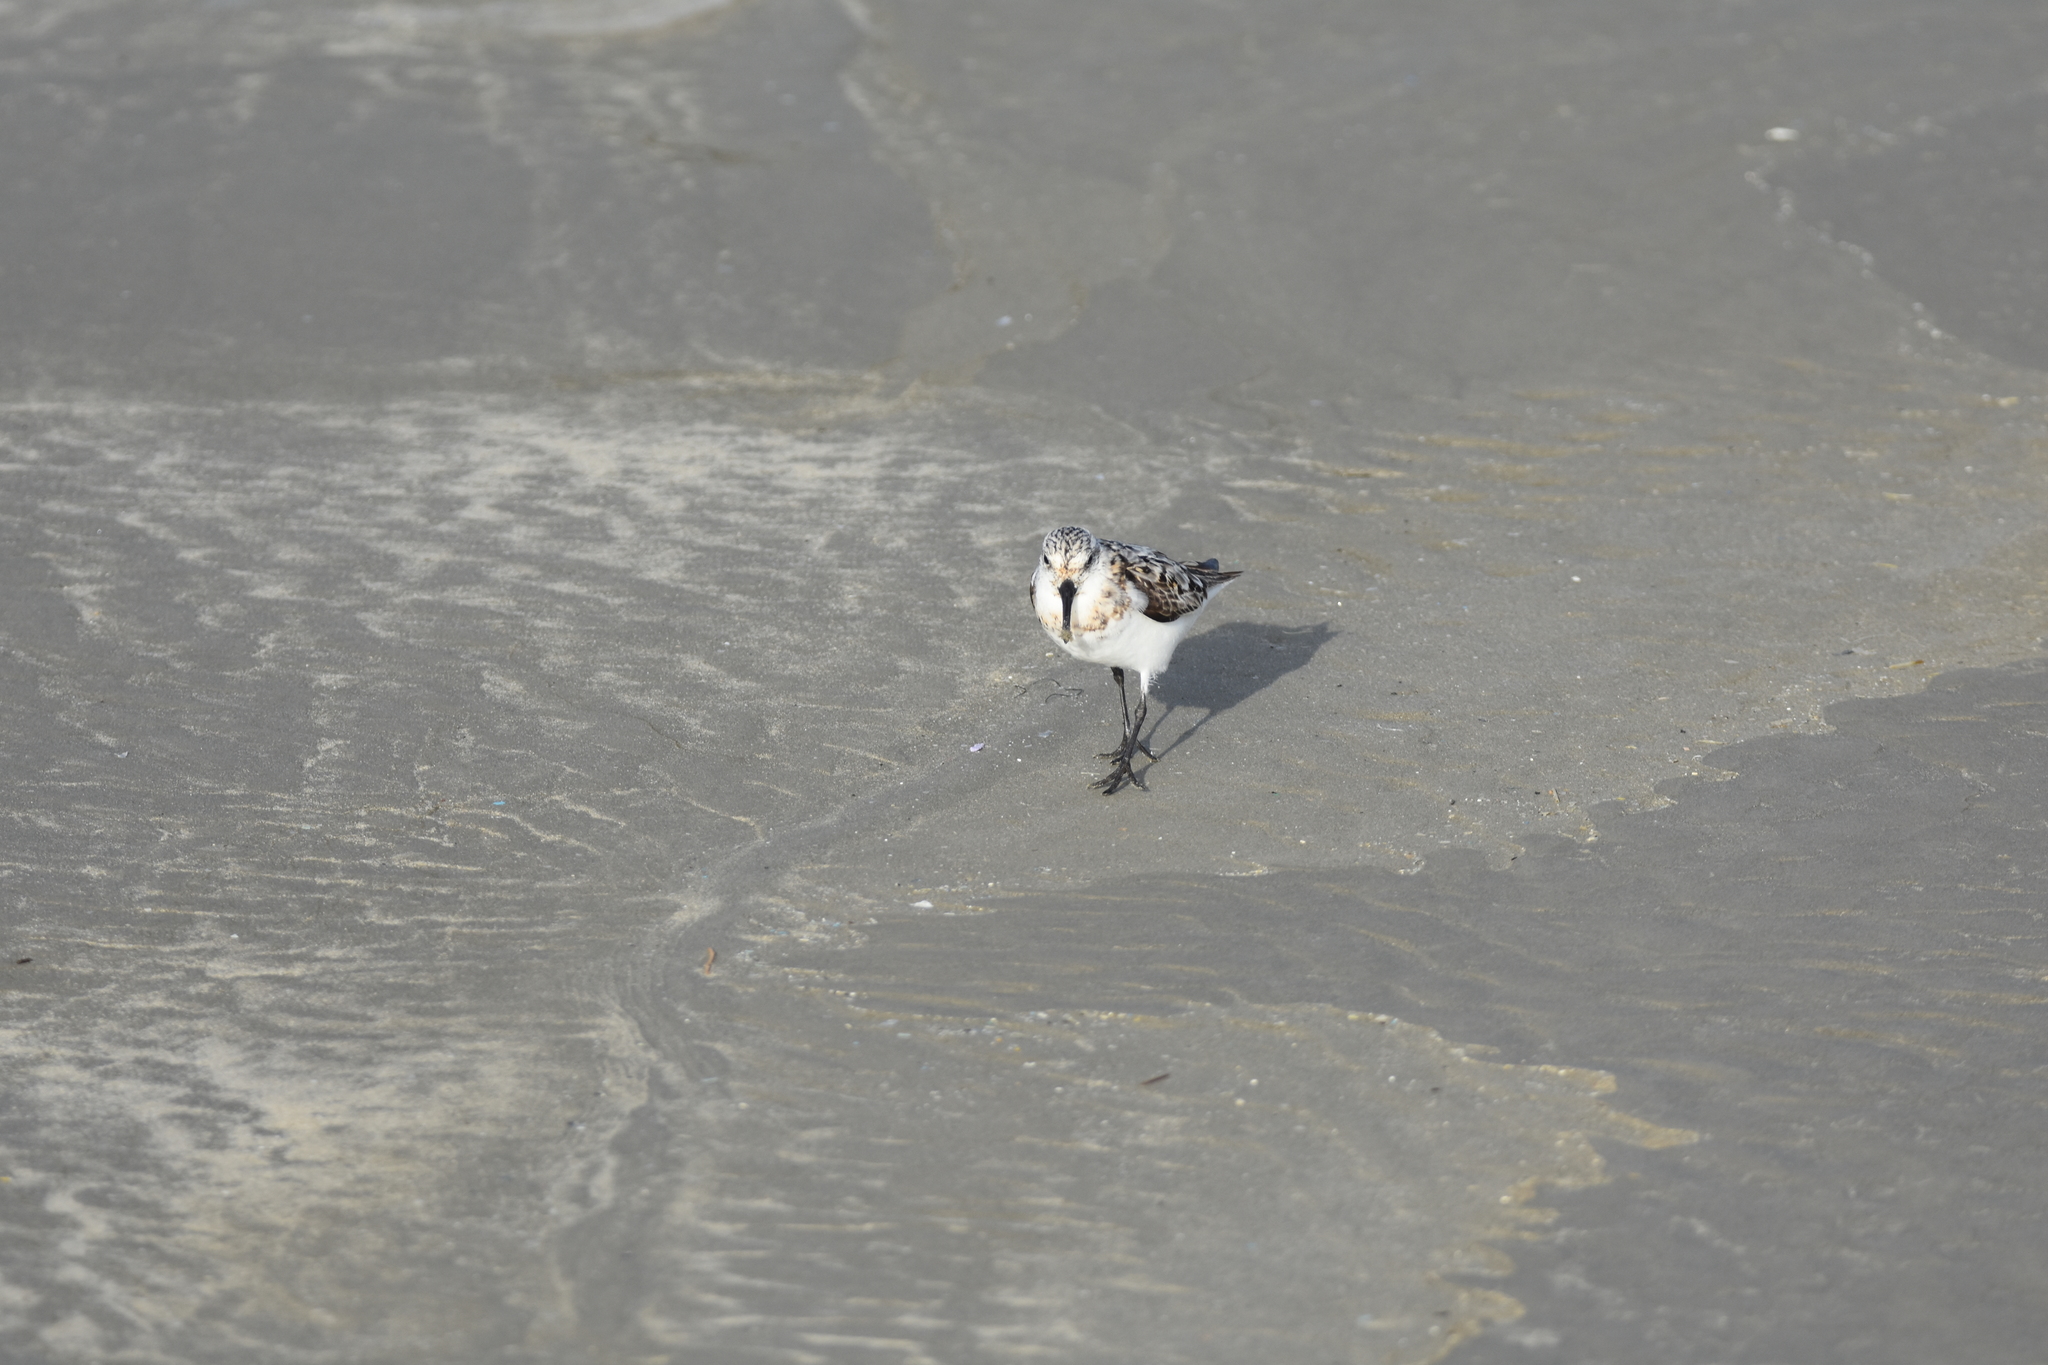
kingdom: Animalia
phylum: Chordata
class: Aves
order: Charadriiformes
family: Scolopacidae
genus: Calidris
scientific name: Calidris alba
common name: Sanderling
